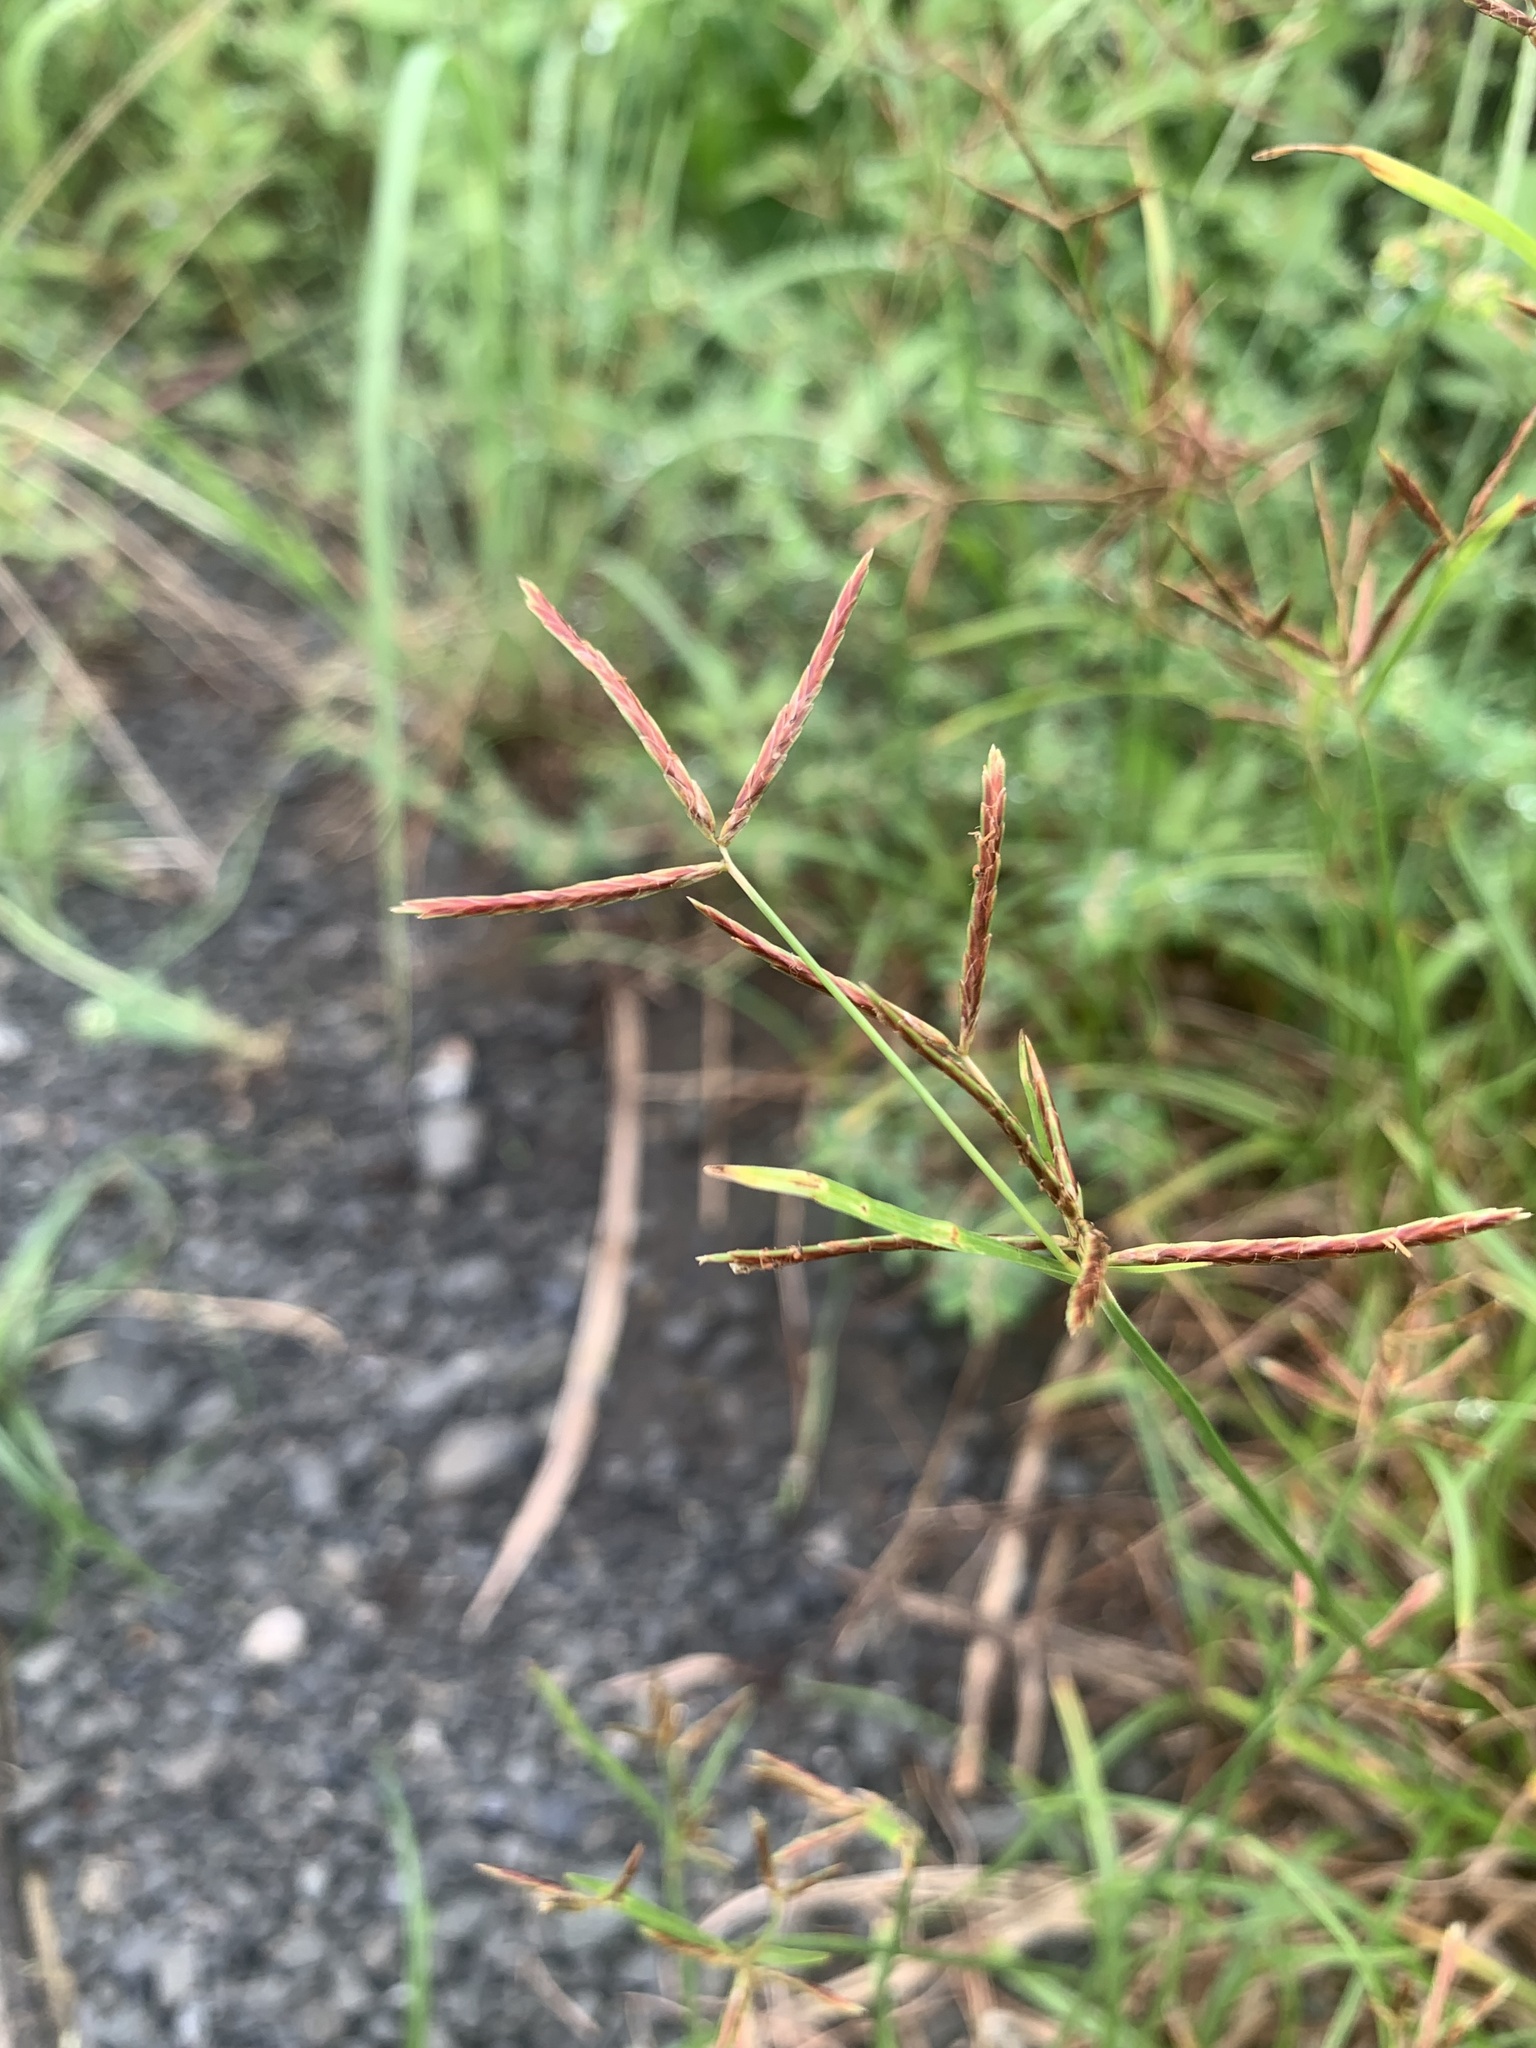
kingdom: Plantae
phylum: Tracheophyta
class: Liliopsida
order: Poales
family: Cyperaceae
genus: Cyperus
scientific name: Cyperus rotundus
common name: Nutgrass
